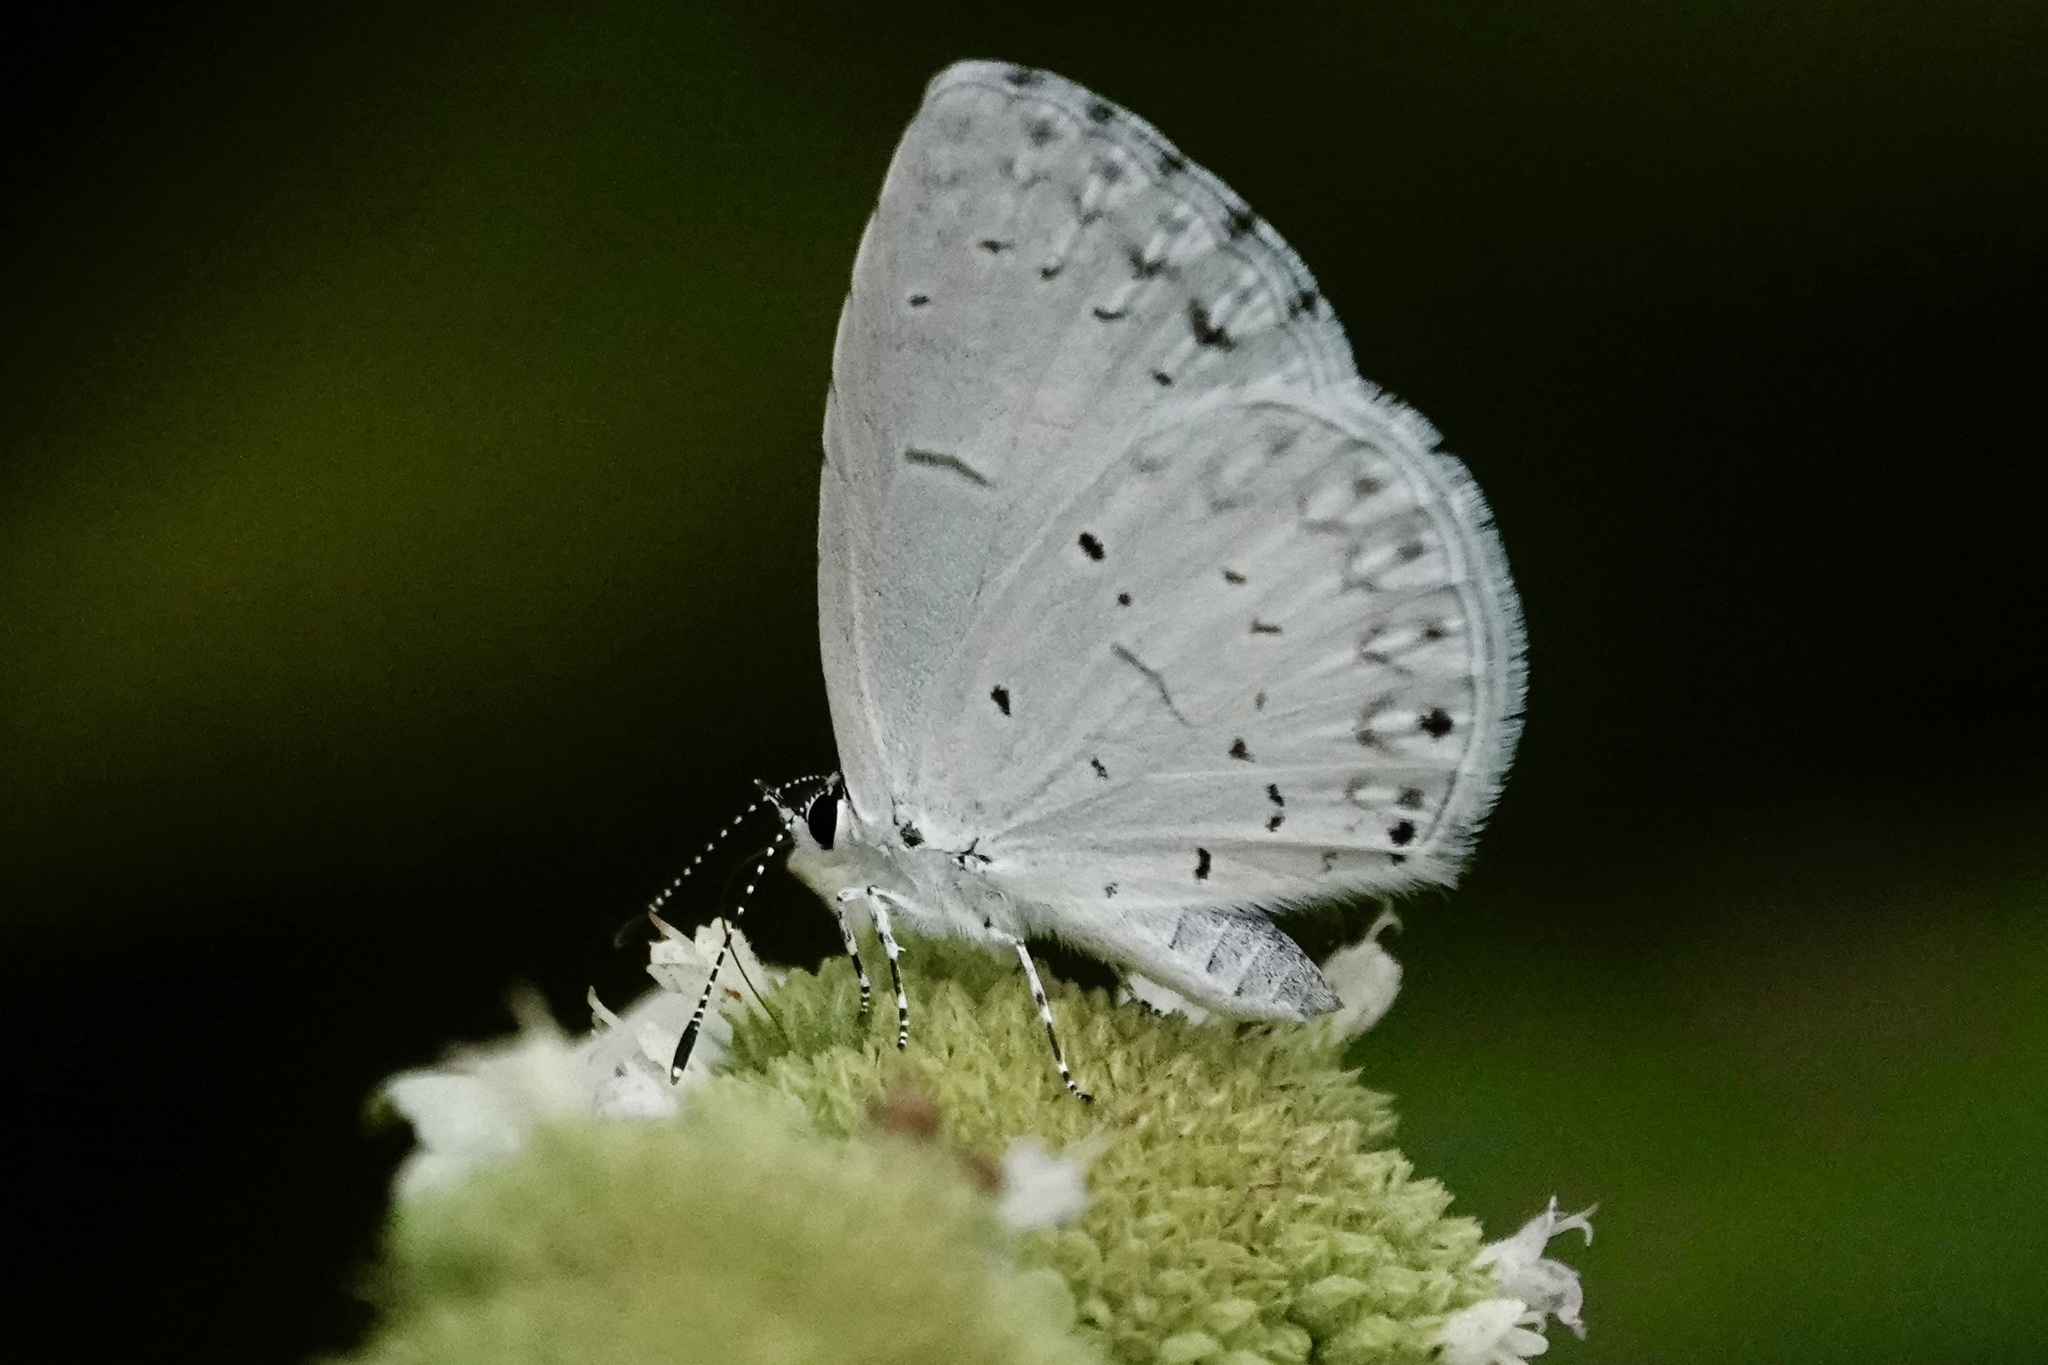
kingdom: Animalia
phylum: Arthropoda
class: Insecta
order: Lepidoptera
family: Lycaenidae
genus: Cyaniris
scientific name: Cyaniris neglecta
